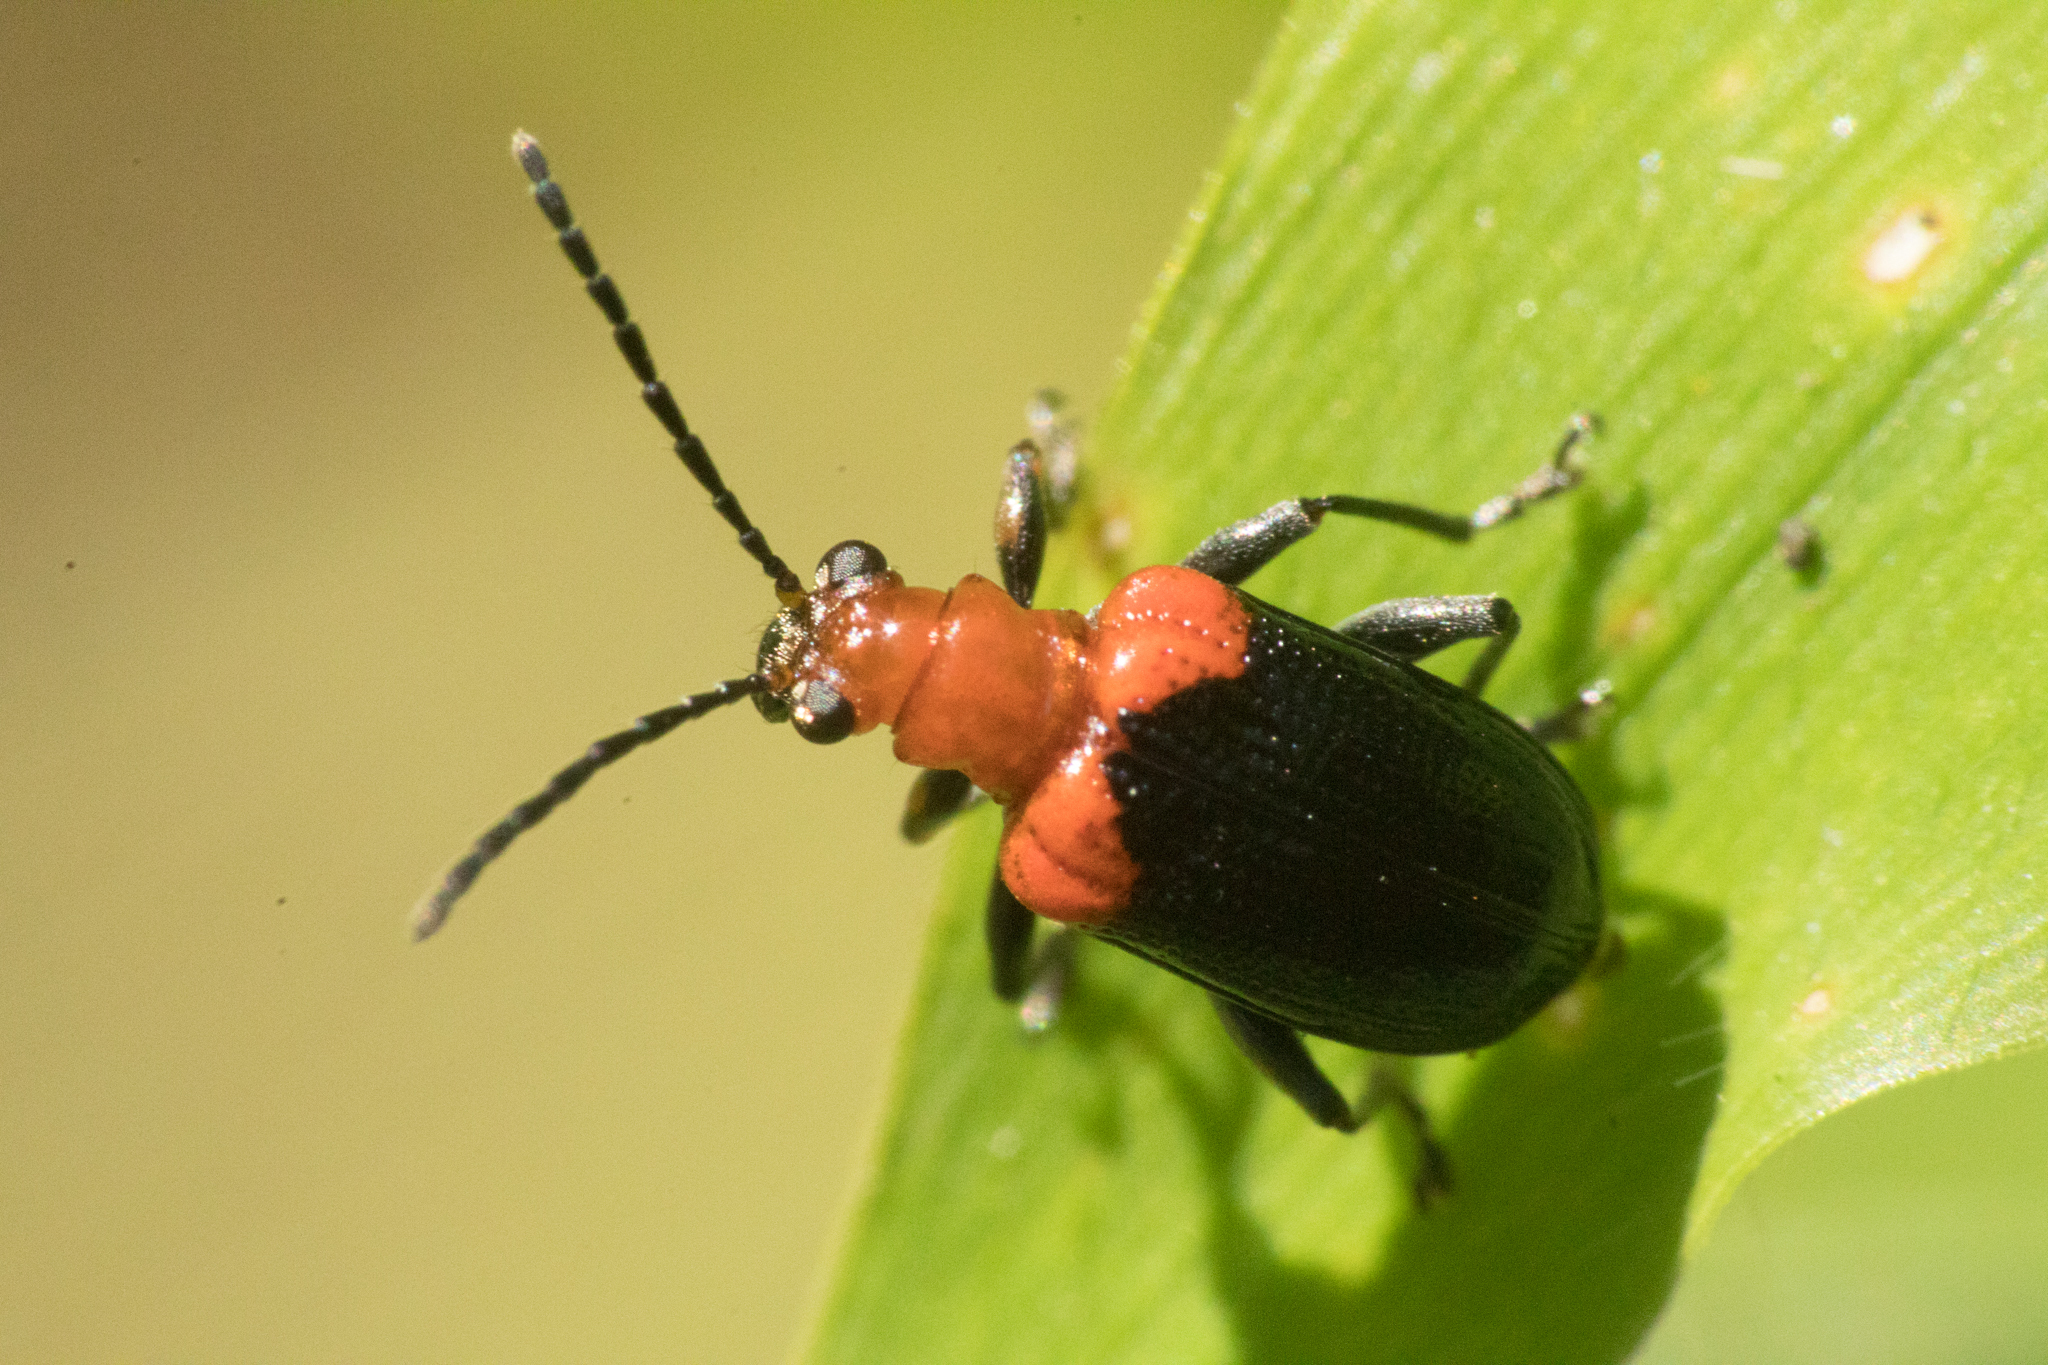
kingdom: Animalia
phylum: Arthropoda
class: Insecta
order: Coleoptera
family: Chrysomelidae
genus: Neolema
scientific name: Neolema
